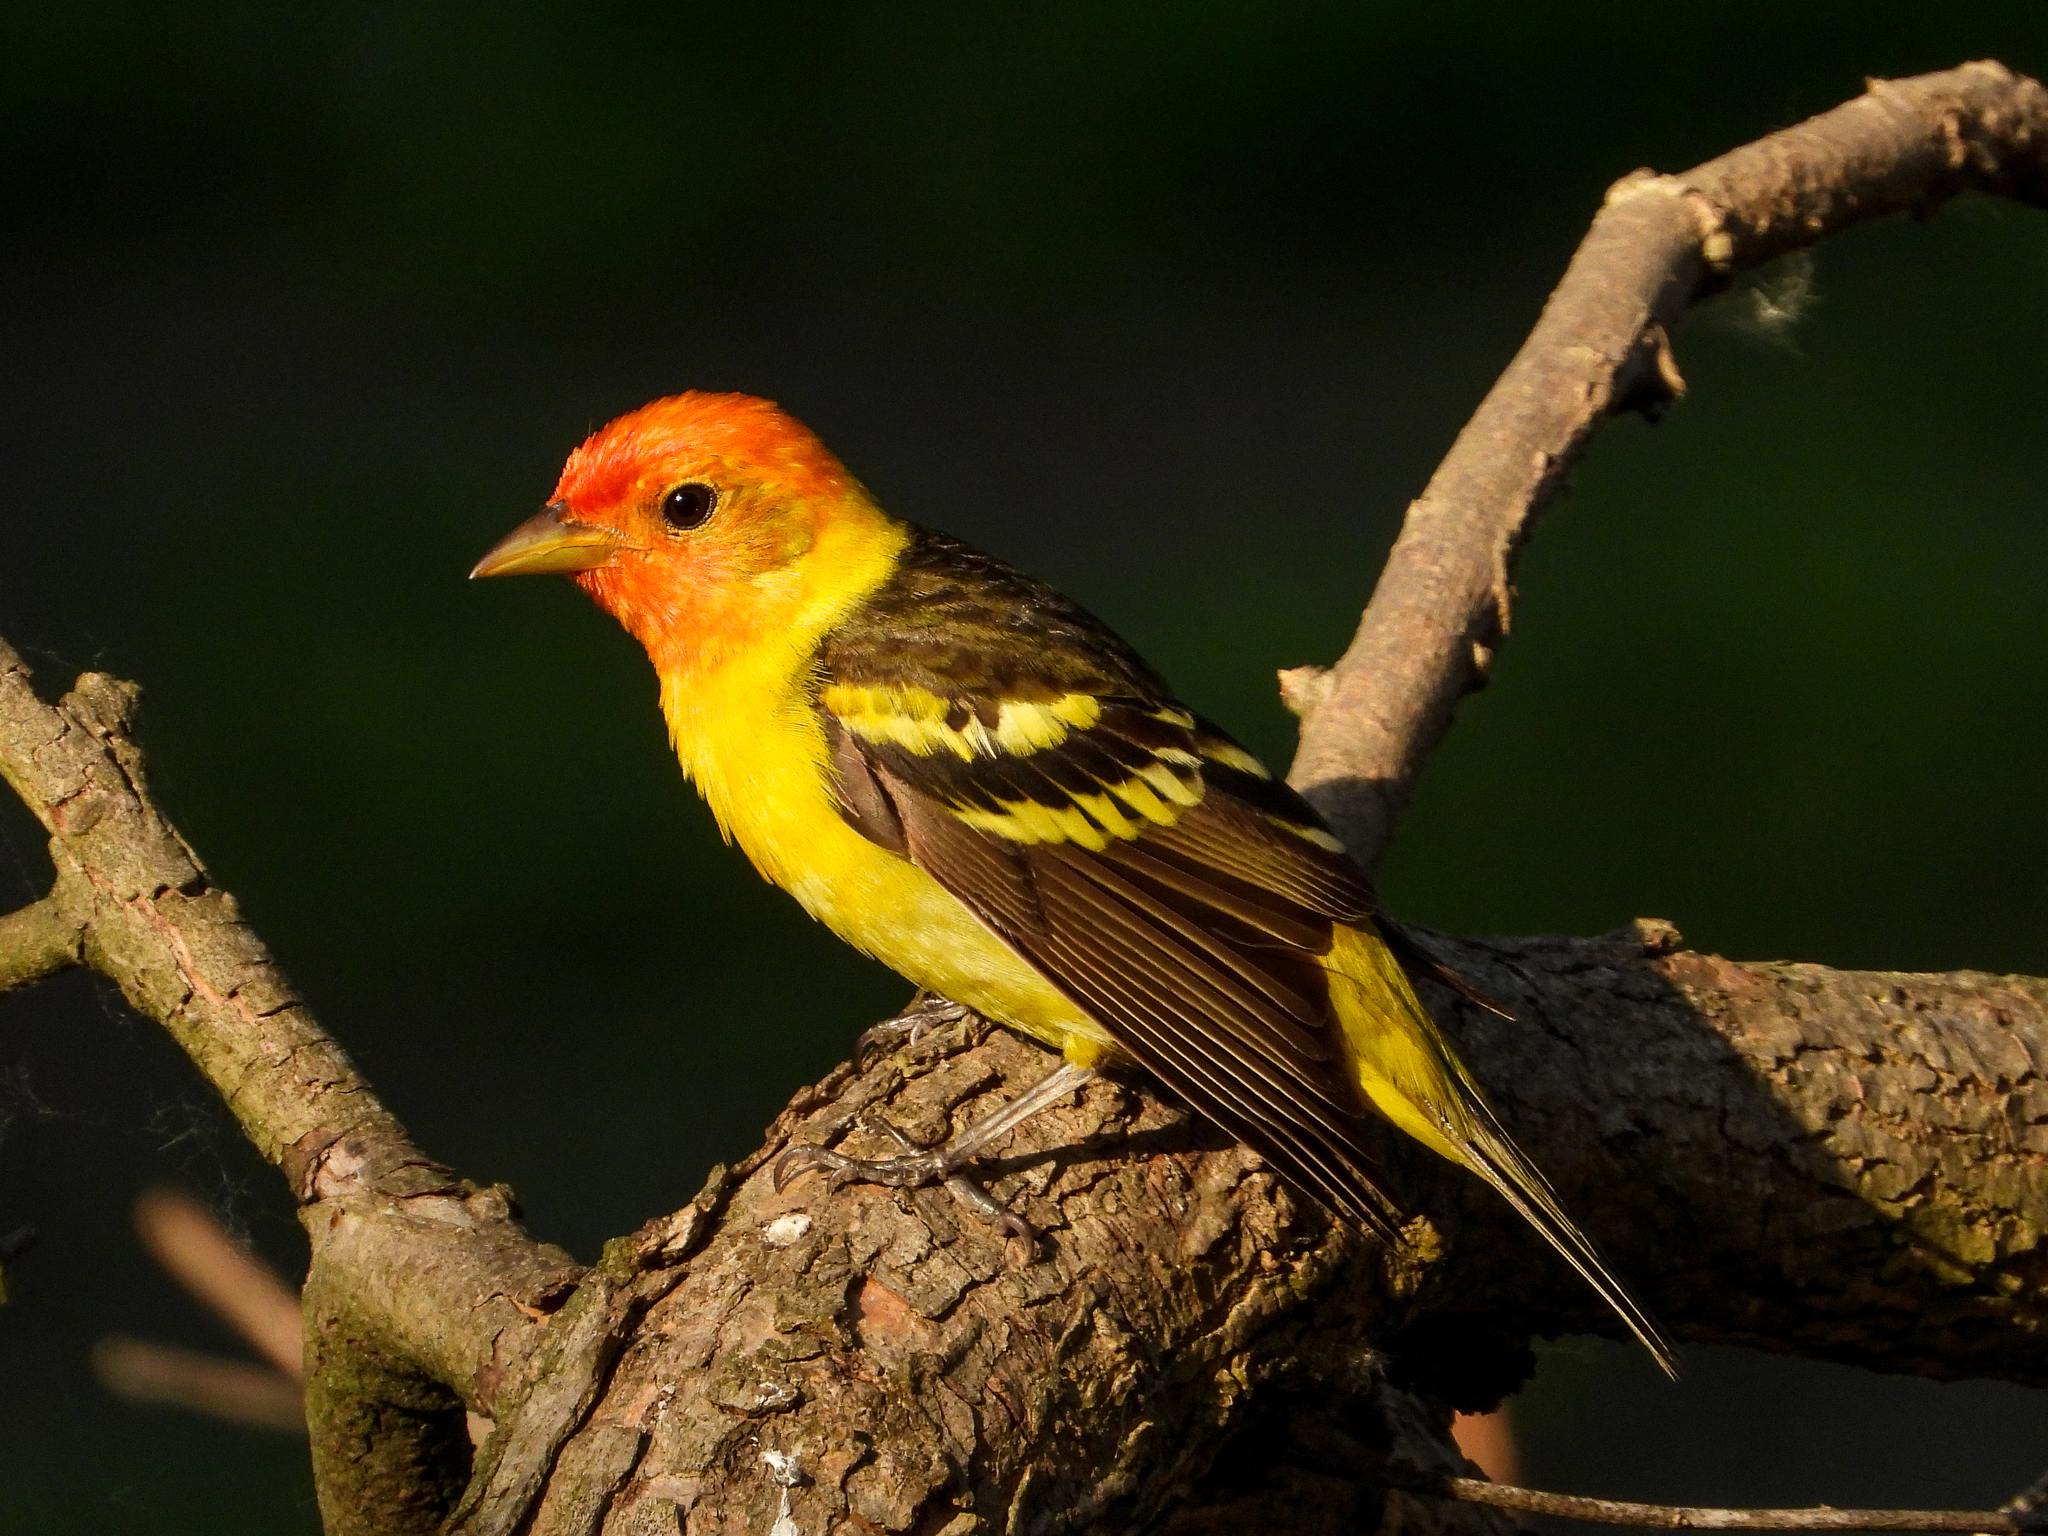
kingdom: Animalia
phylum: Chordata
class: Aves
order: Passeriformes
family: Cardinalidae
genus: Piranga
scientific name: Piranga ludoviciana
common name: Western tanager
